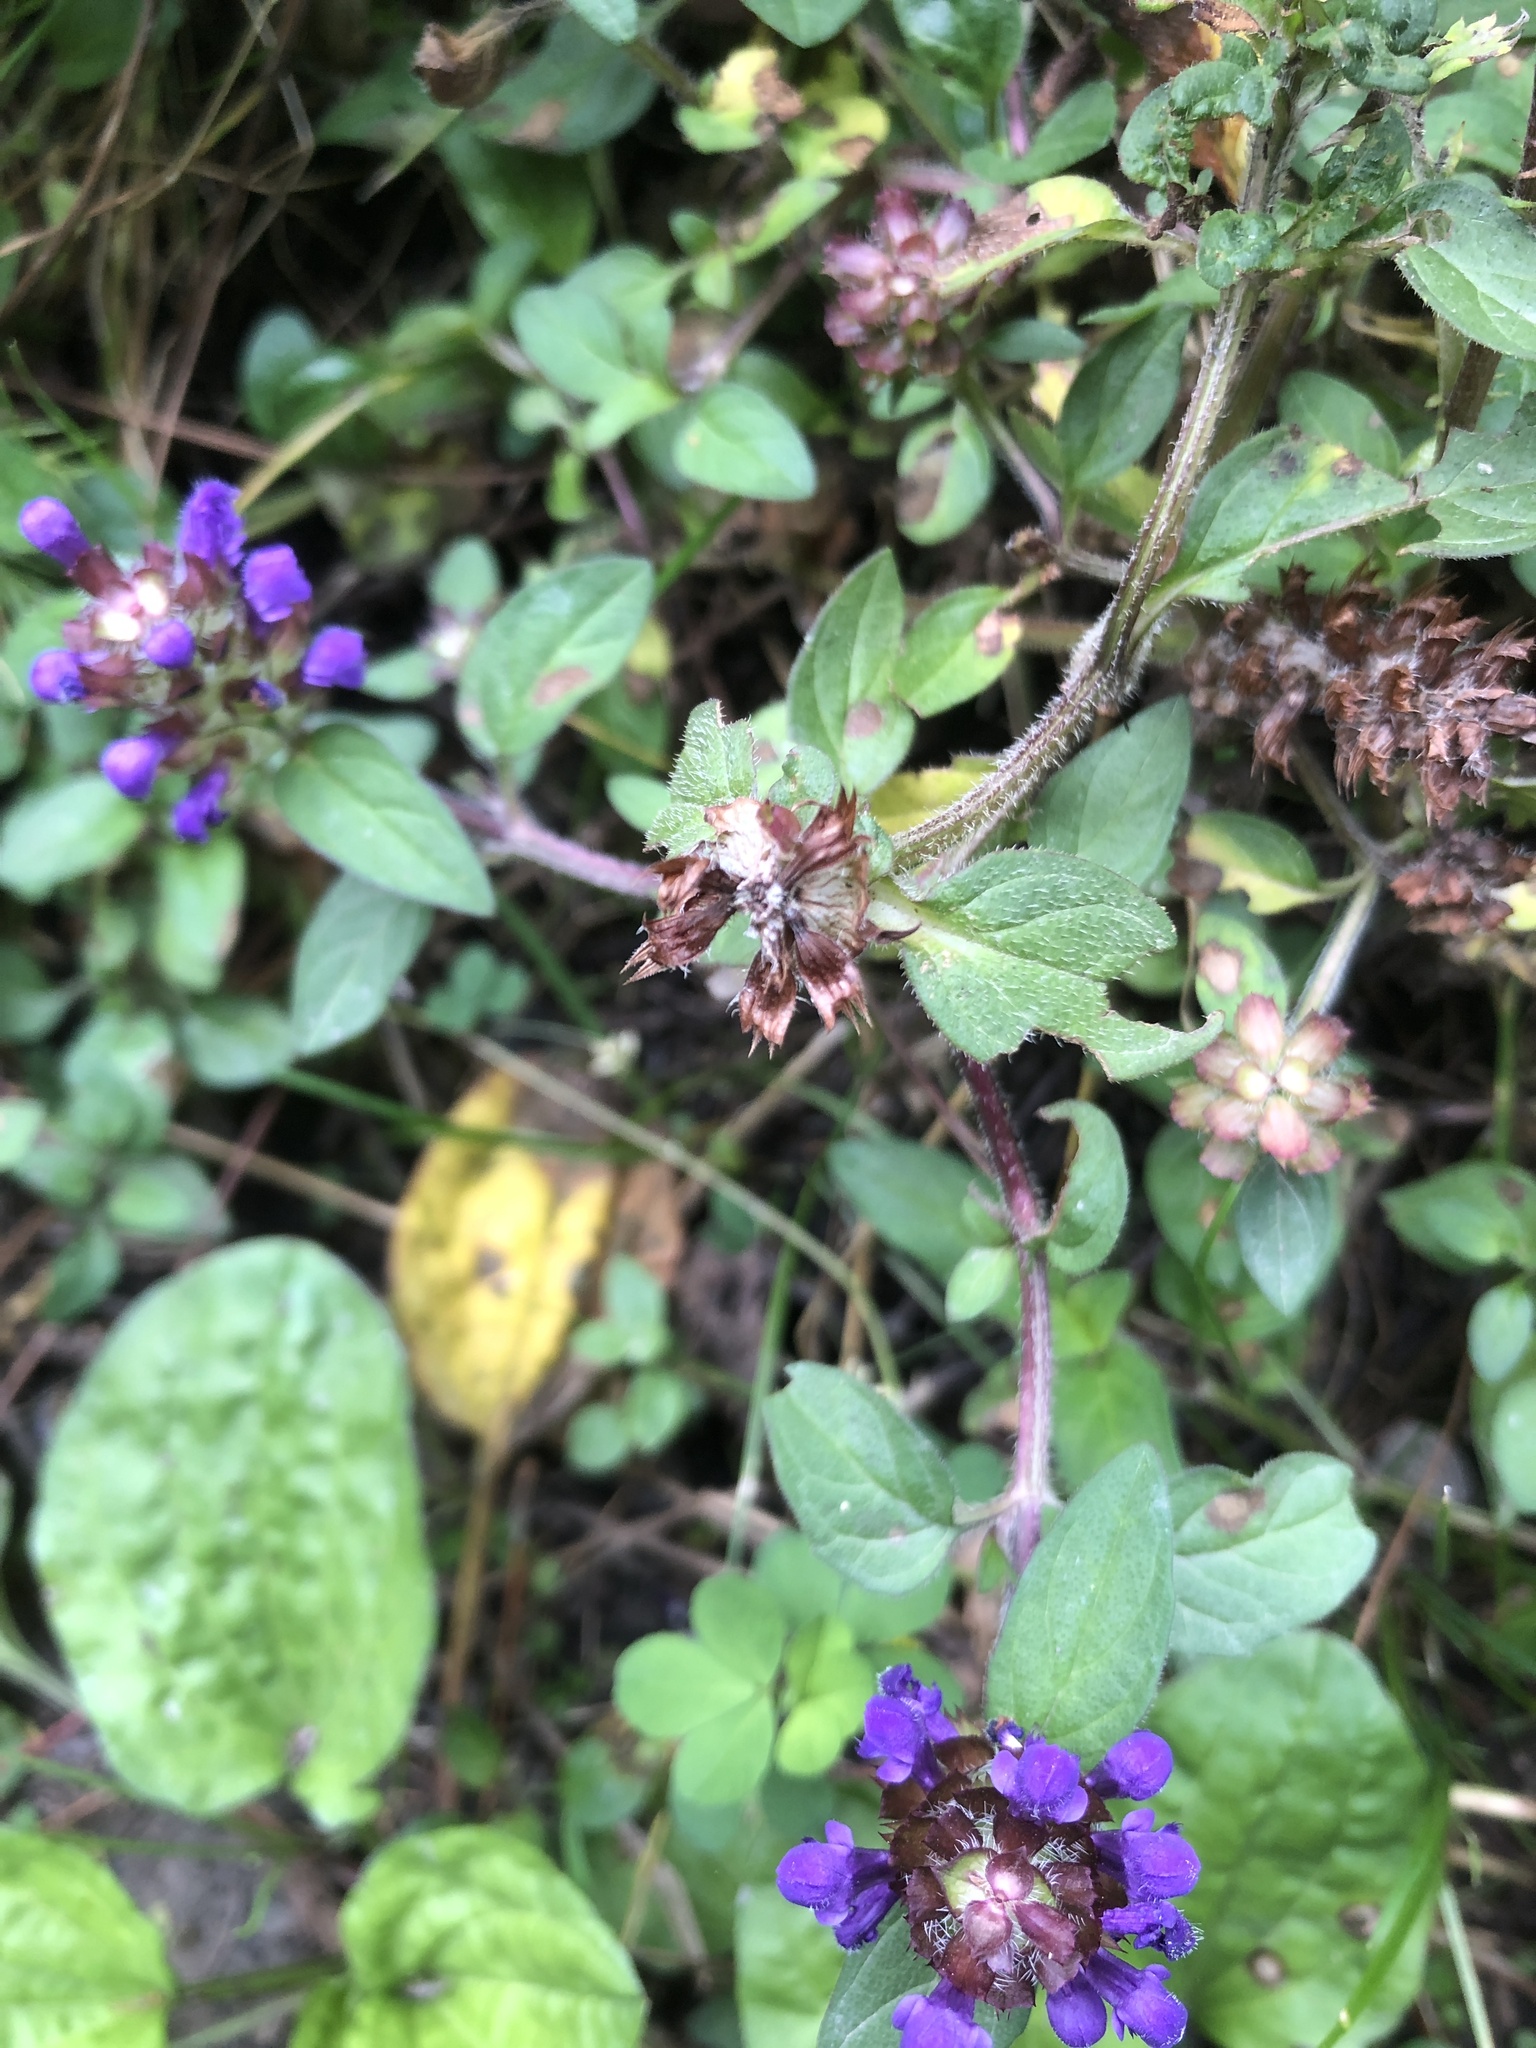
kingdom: Plantae
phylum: Tracheophyta
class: Magnoliopsida
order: Lamiales
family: Lamiaceae
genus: Prunella
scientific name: Prunella vulgaris
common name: Heal-all
